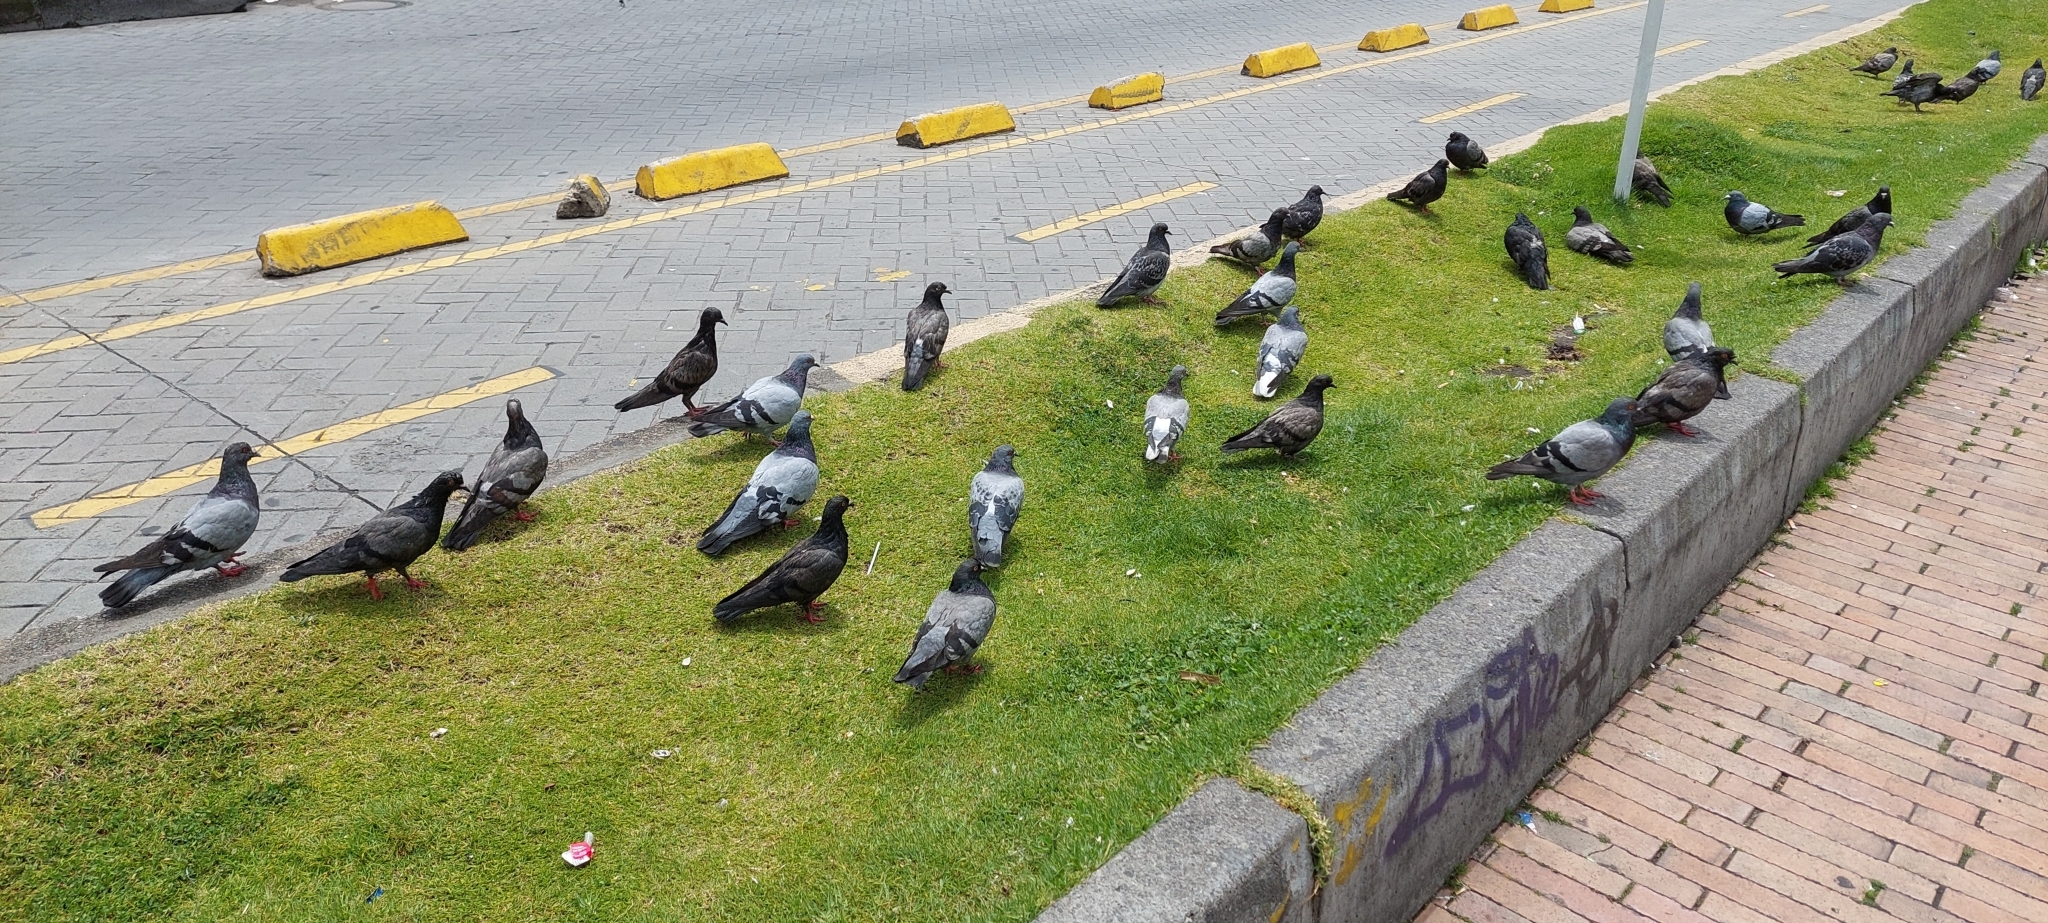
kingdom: Animalia
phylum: Chordata
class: Aves
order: Columbiformes
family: Columbidae
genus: Columba
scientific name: Columba livia
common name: Rock pigeon
